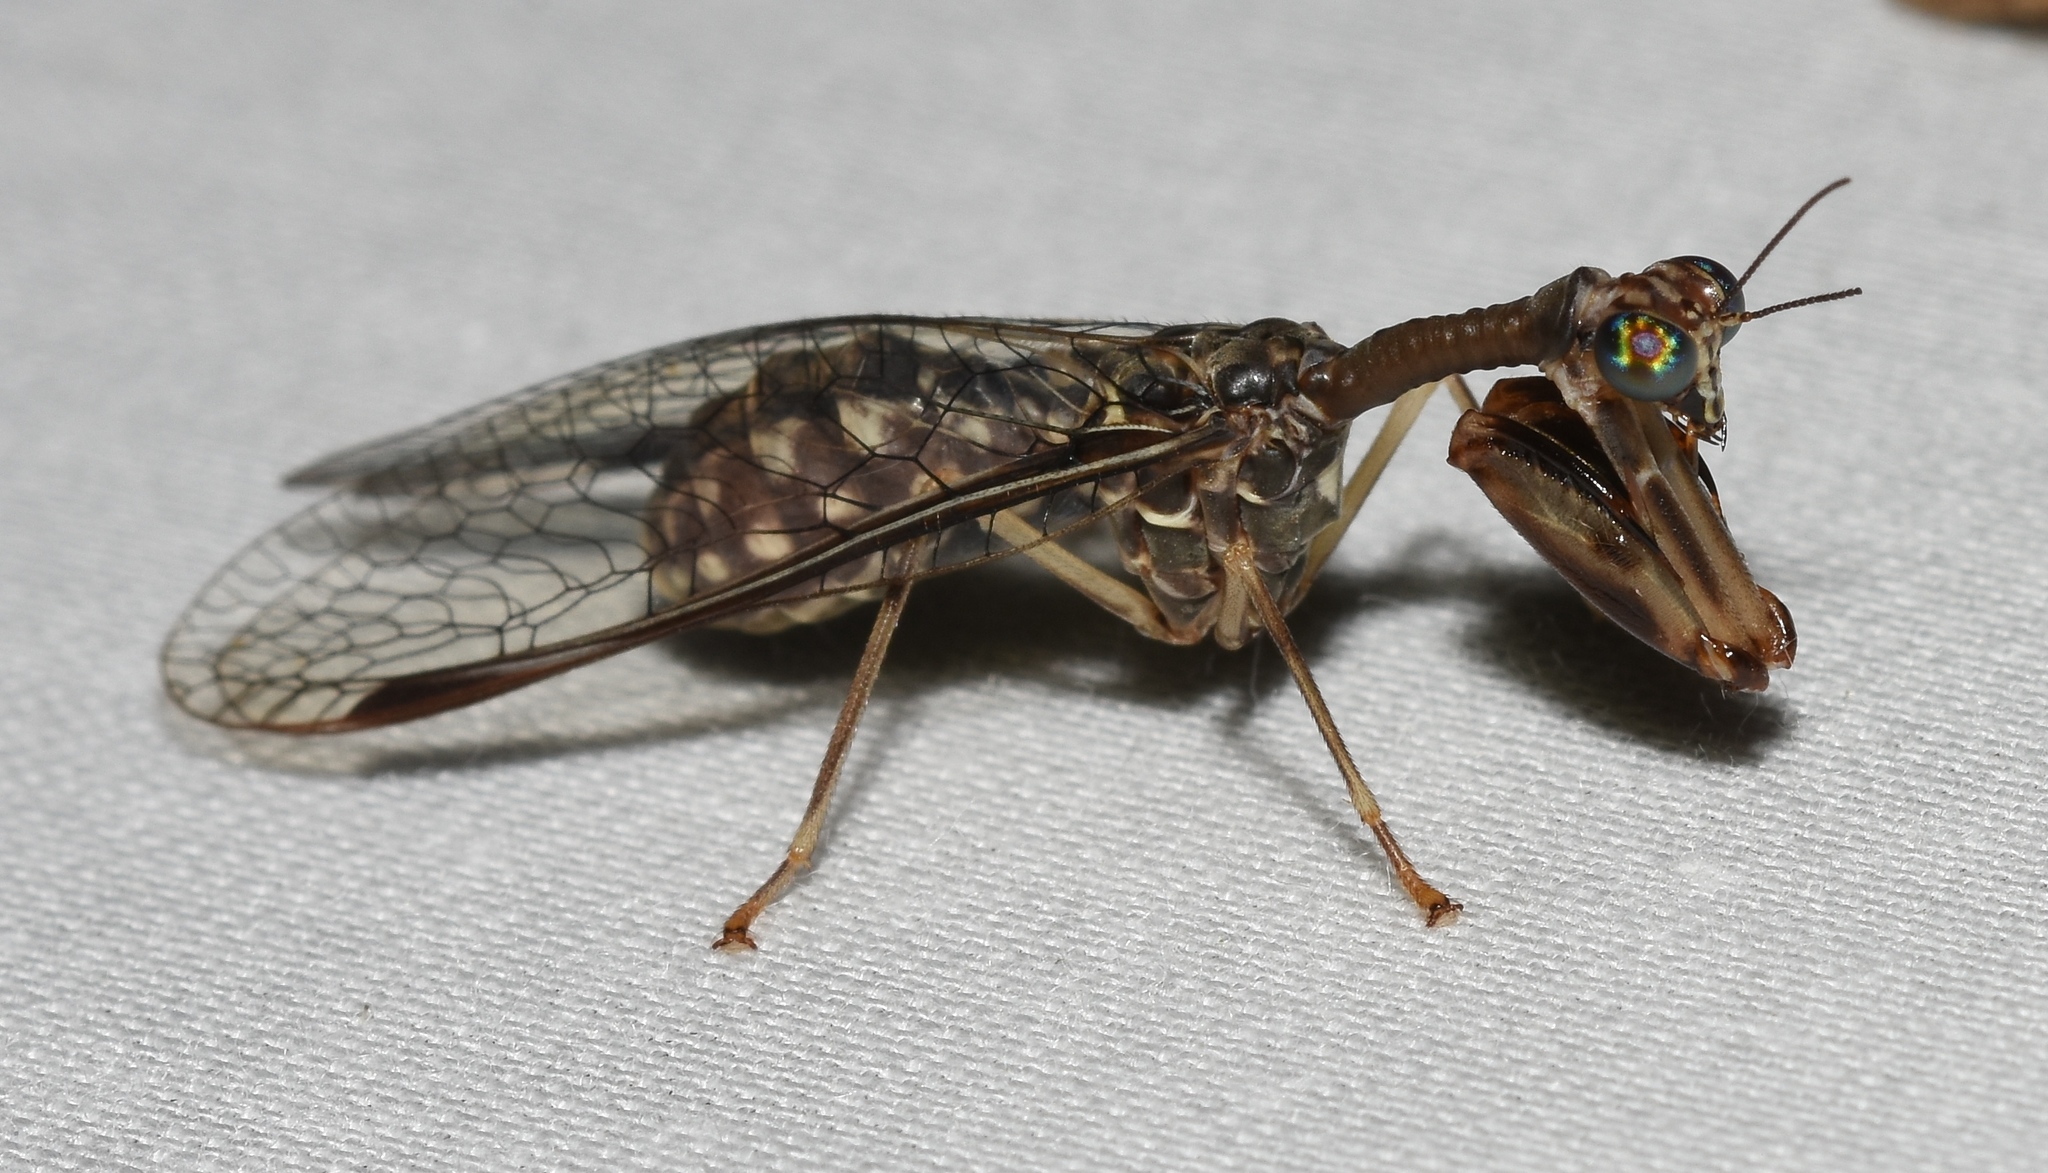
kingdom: Animalia
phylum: Arthropoda
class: Insecta
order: Neuroptera
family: Mantispidae
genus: Dicromantispa
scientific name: Dicromantispa sayi
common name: Say's mantidfly
